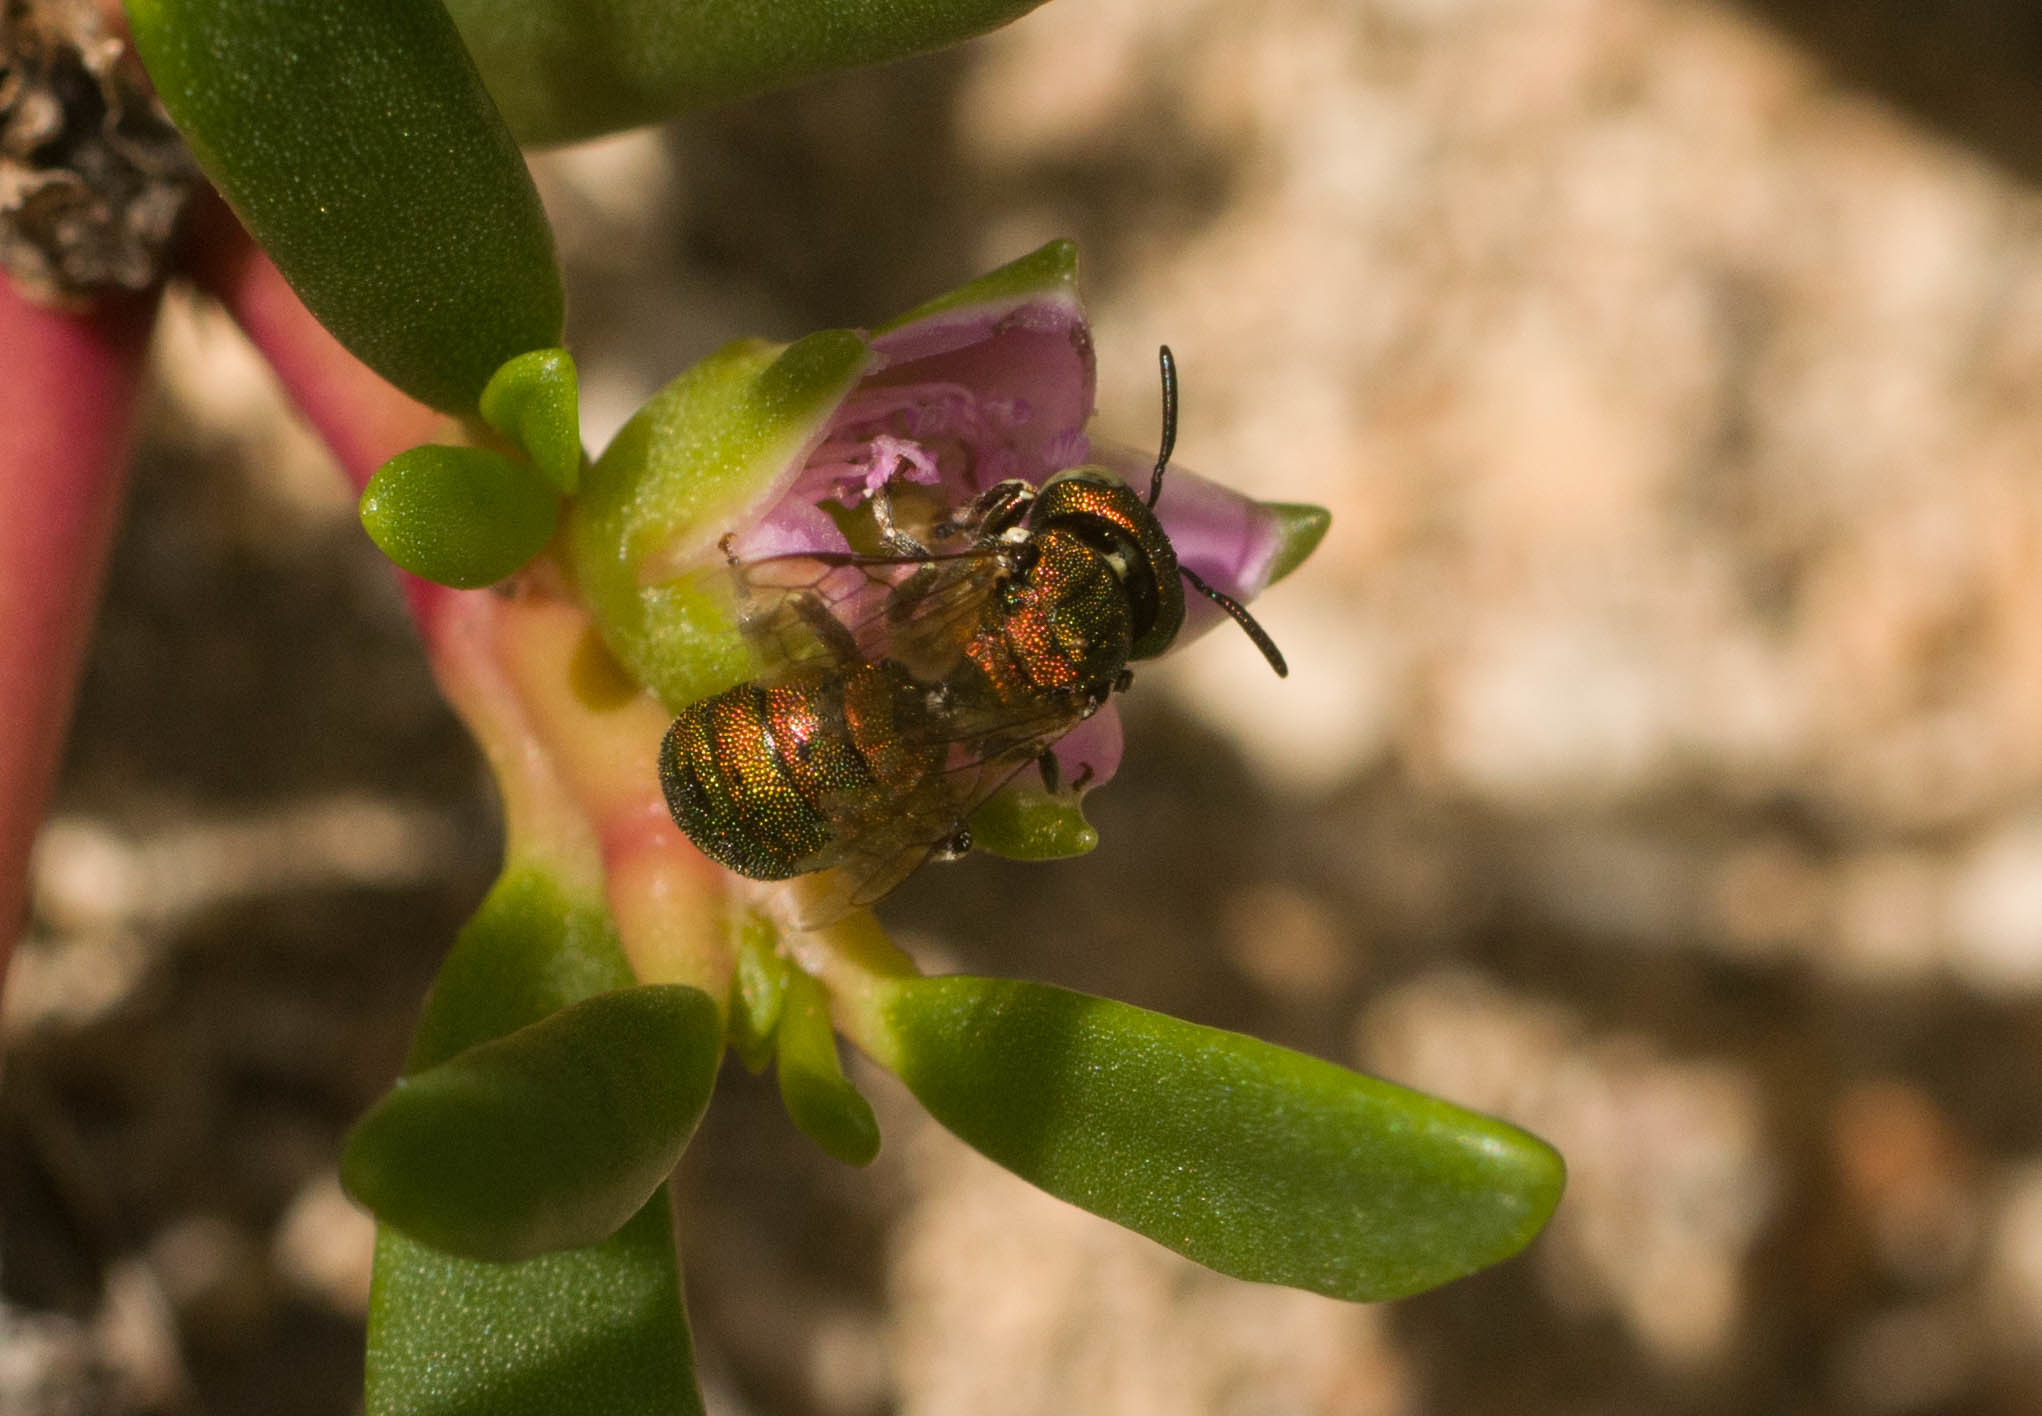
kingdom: Animalia
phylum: Arthropoda
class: Insecta
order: Hymenoptera
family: Apidae
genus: Ceratina
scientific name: Ceratina smaragdula
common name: Small carpenter bee
